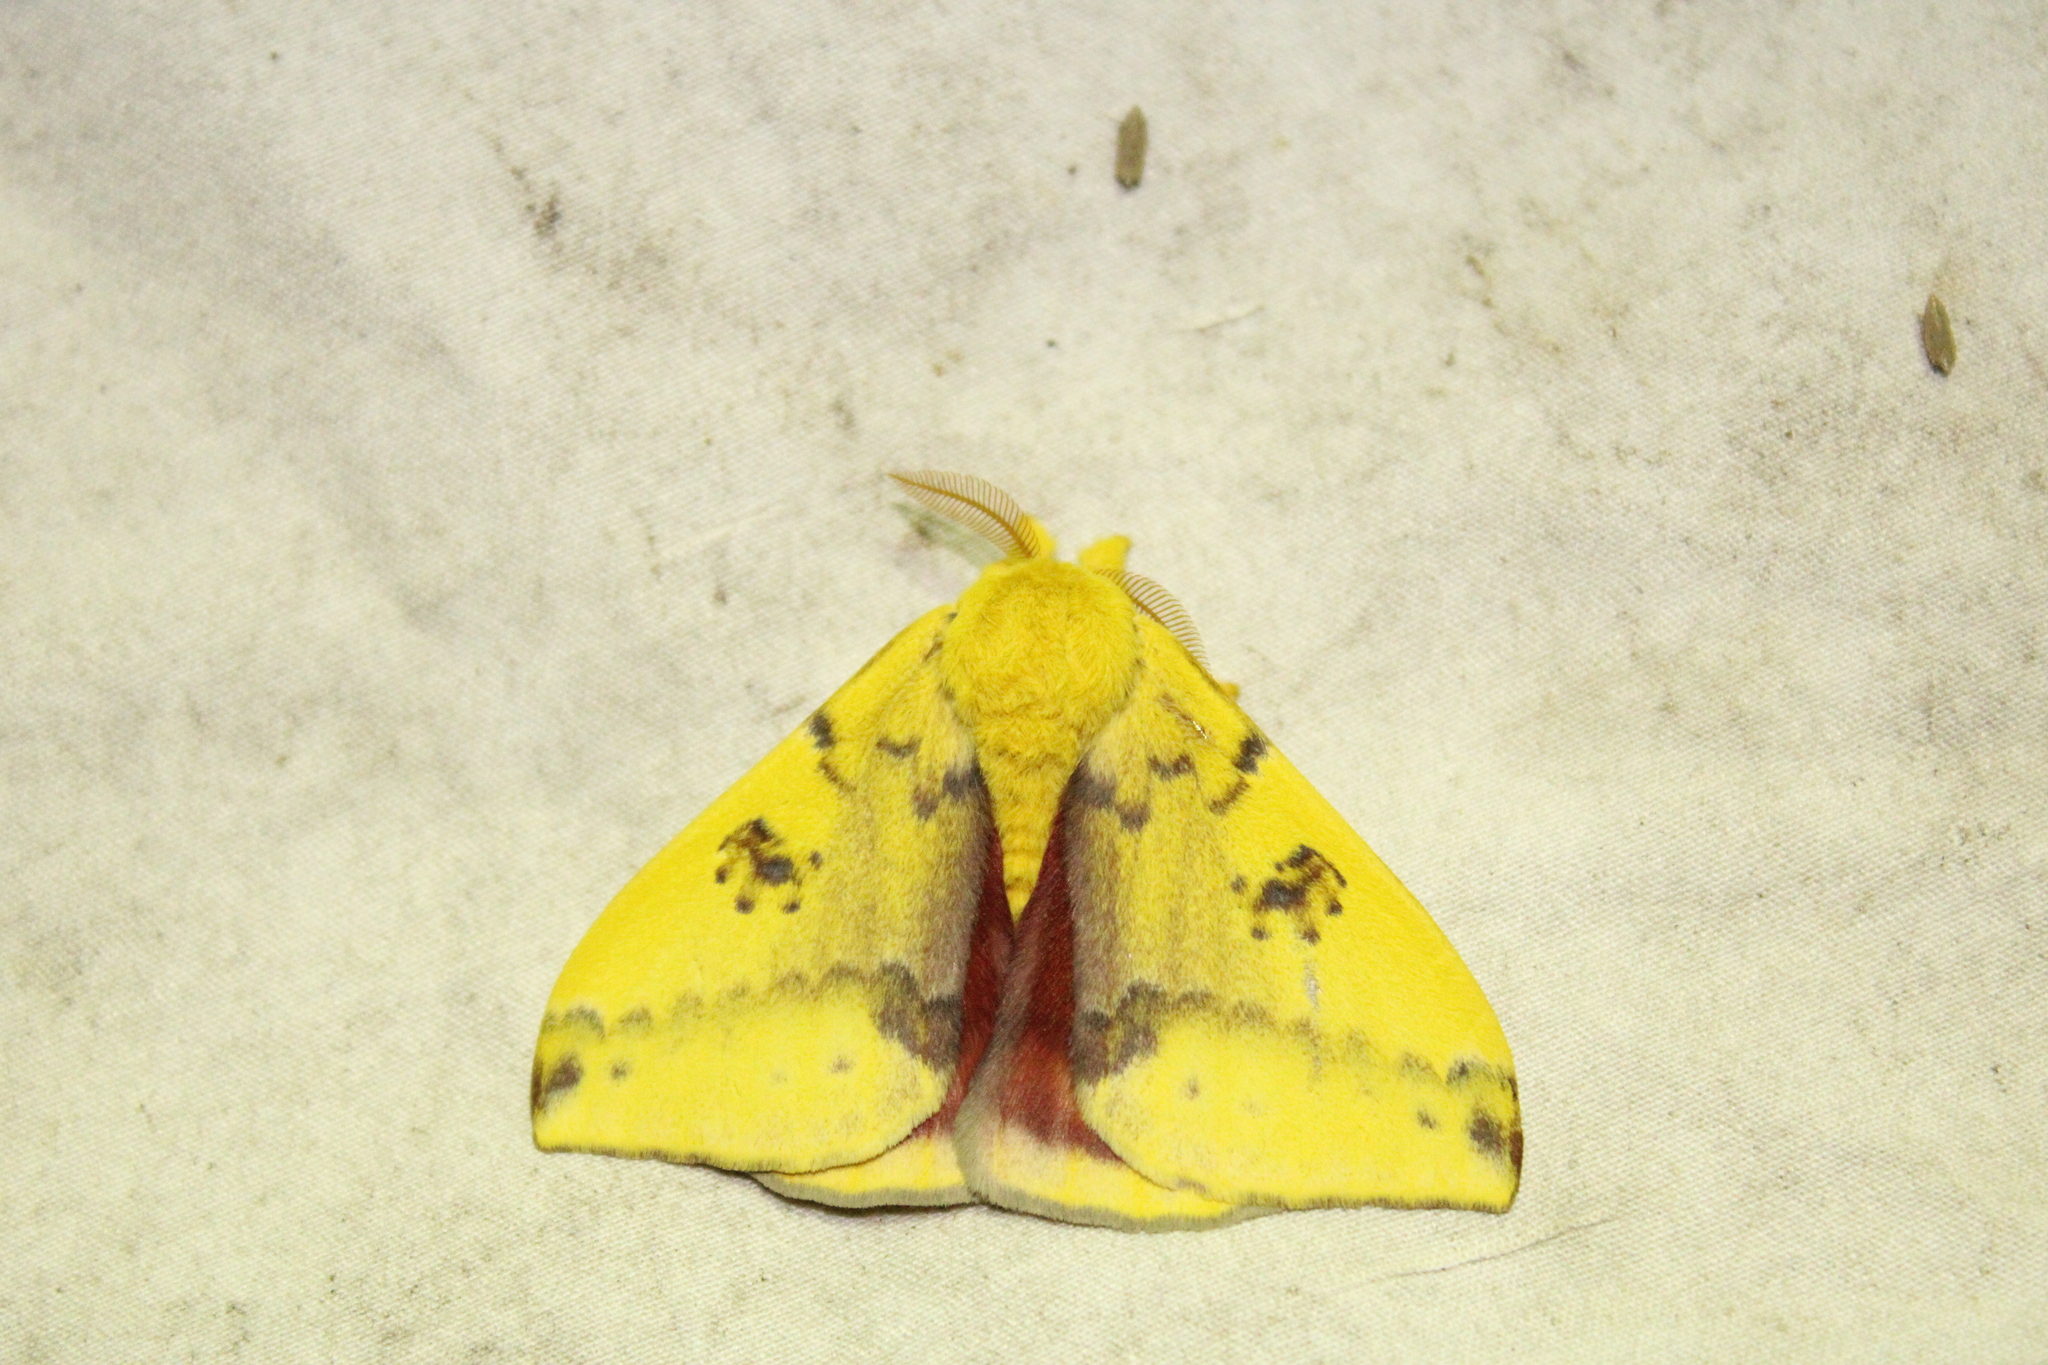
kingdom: Animalia
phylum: Arthropoda
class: Insecta
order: Lepidoptera
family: Saturniidae
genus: Automeris
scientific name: Automeris io
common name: Io moth
